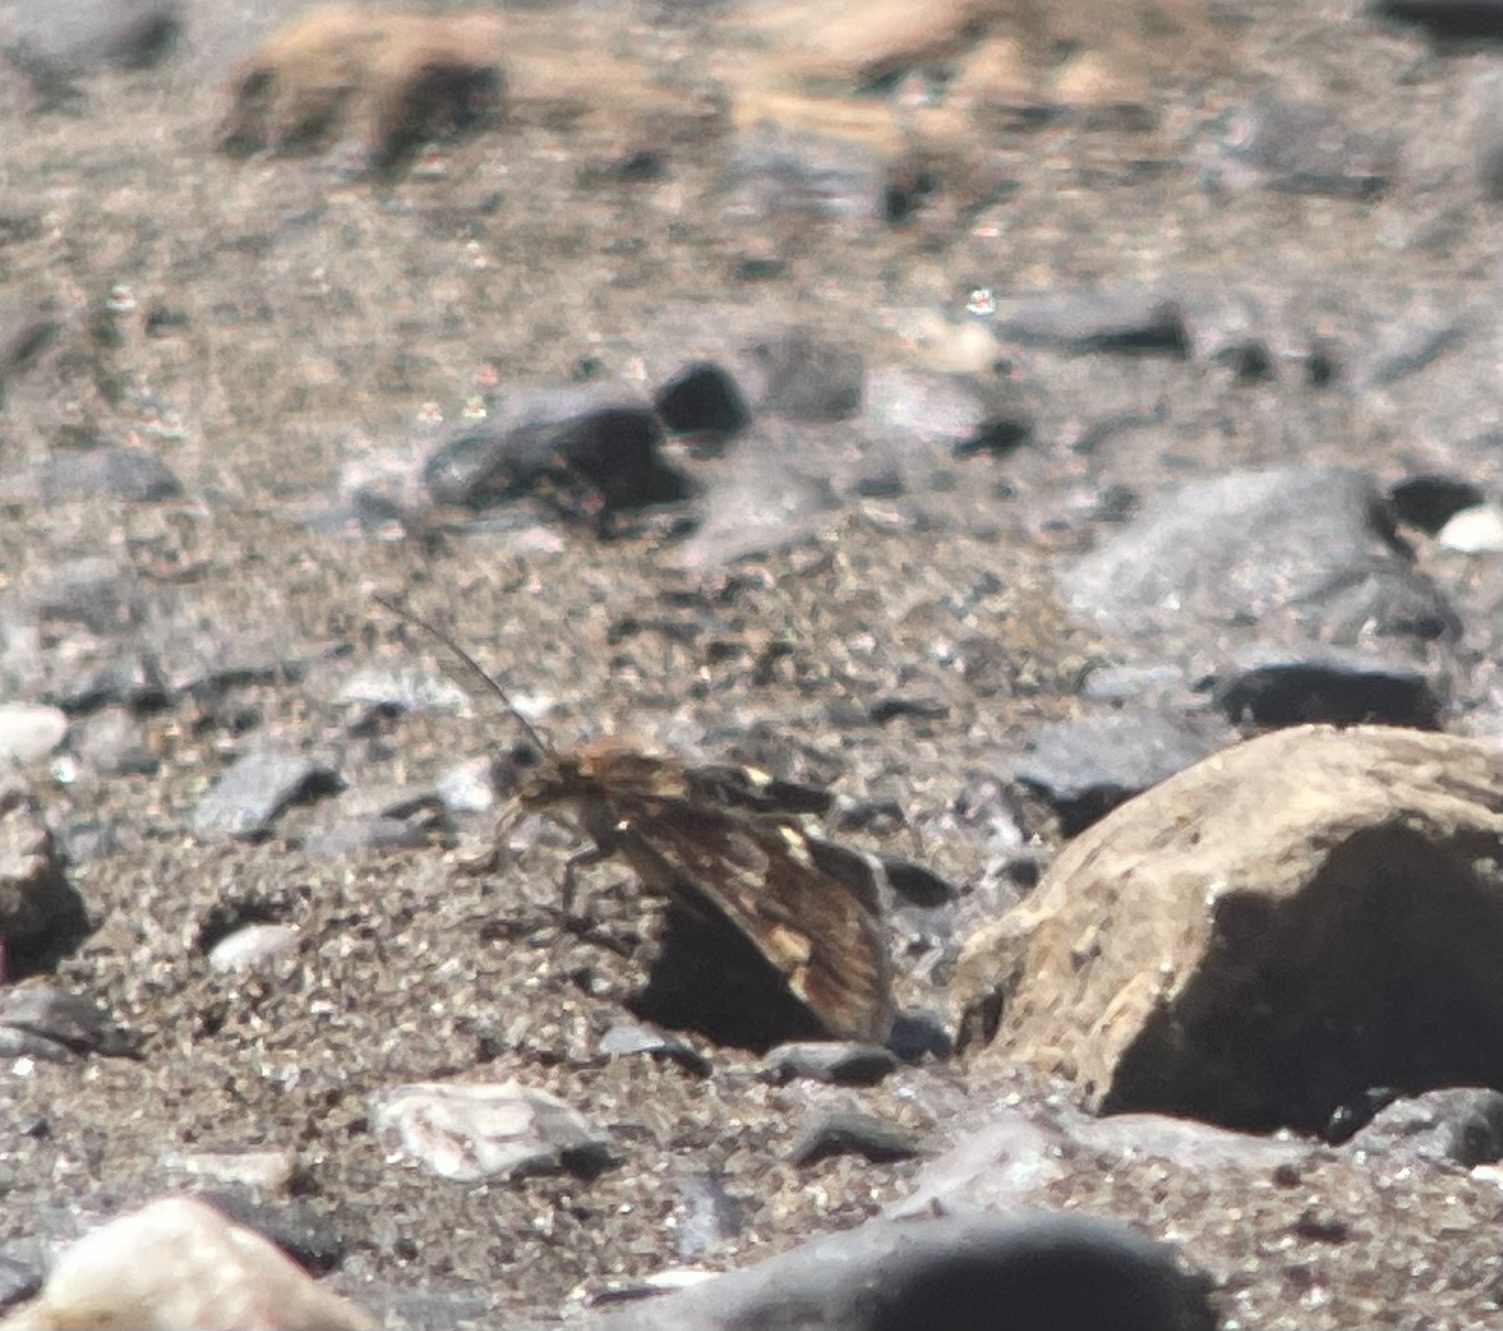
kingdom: Animalia
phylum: Arthropoda
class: Insecta
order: Lepidoptera
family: Crambidae
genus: Pyrausta
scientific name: Pyrausta porphyralis
